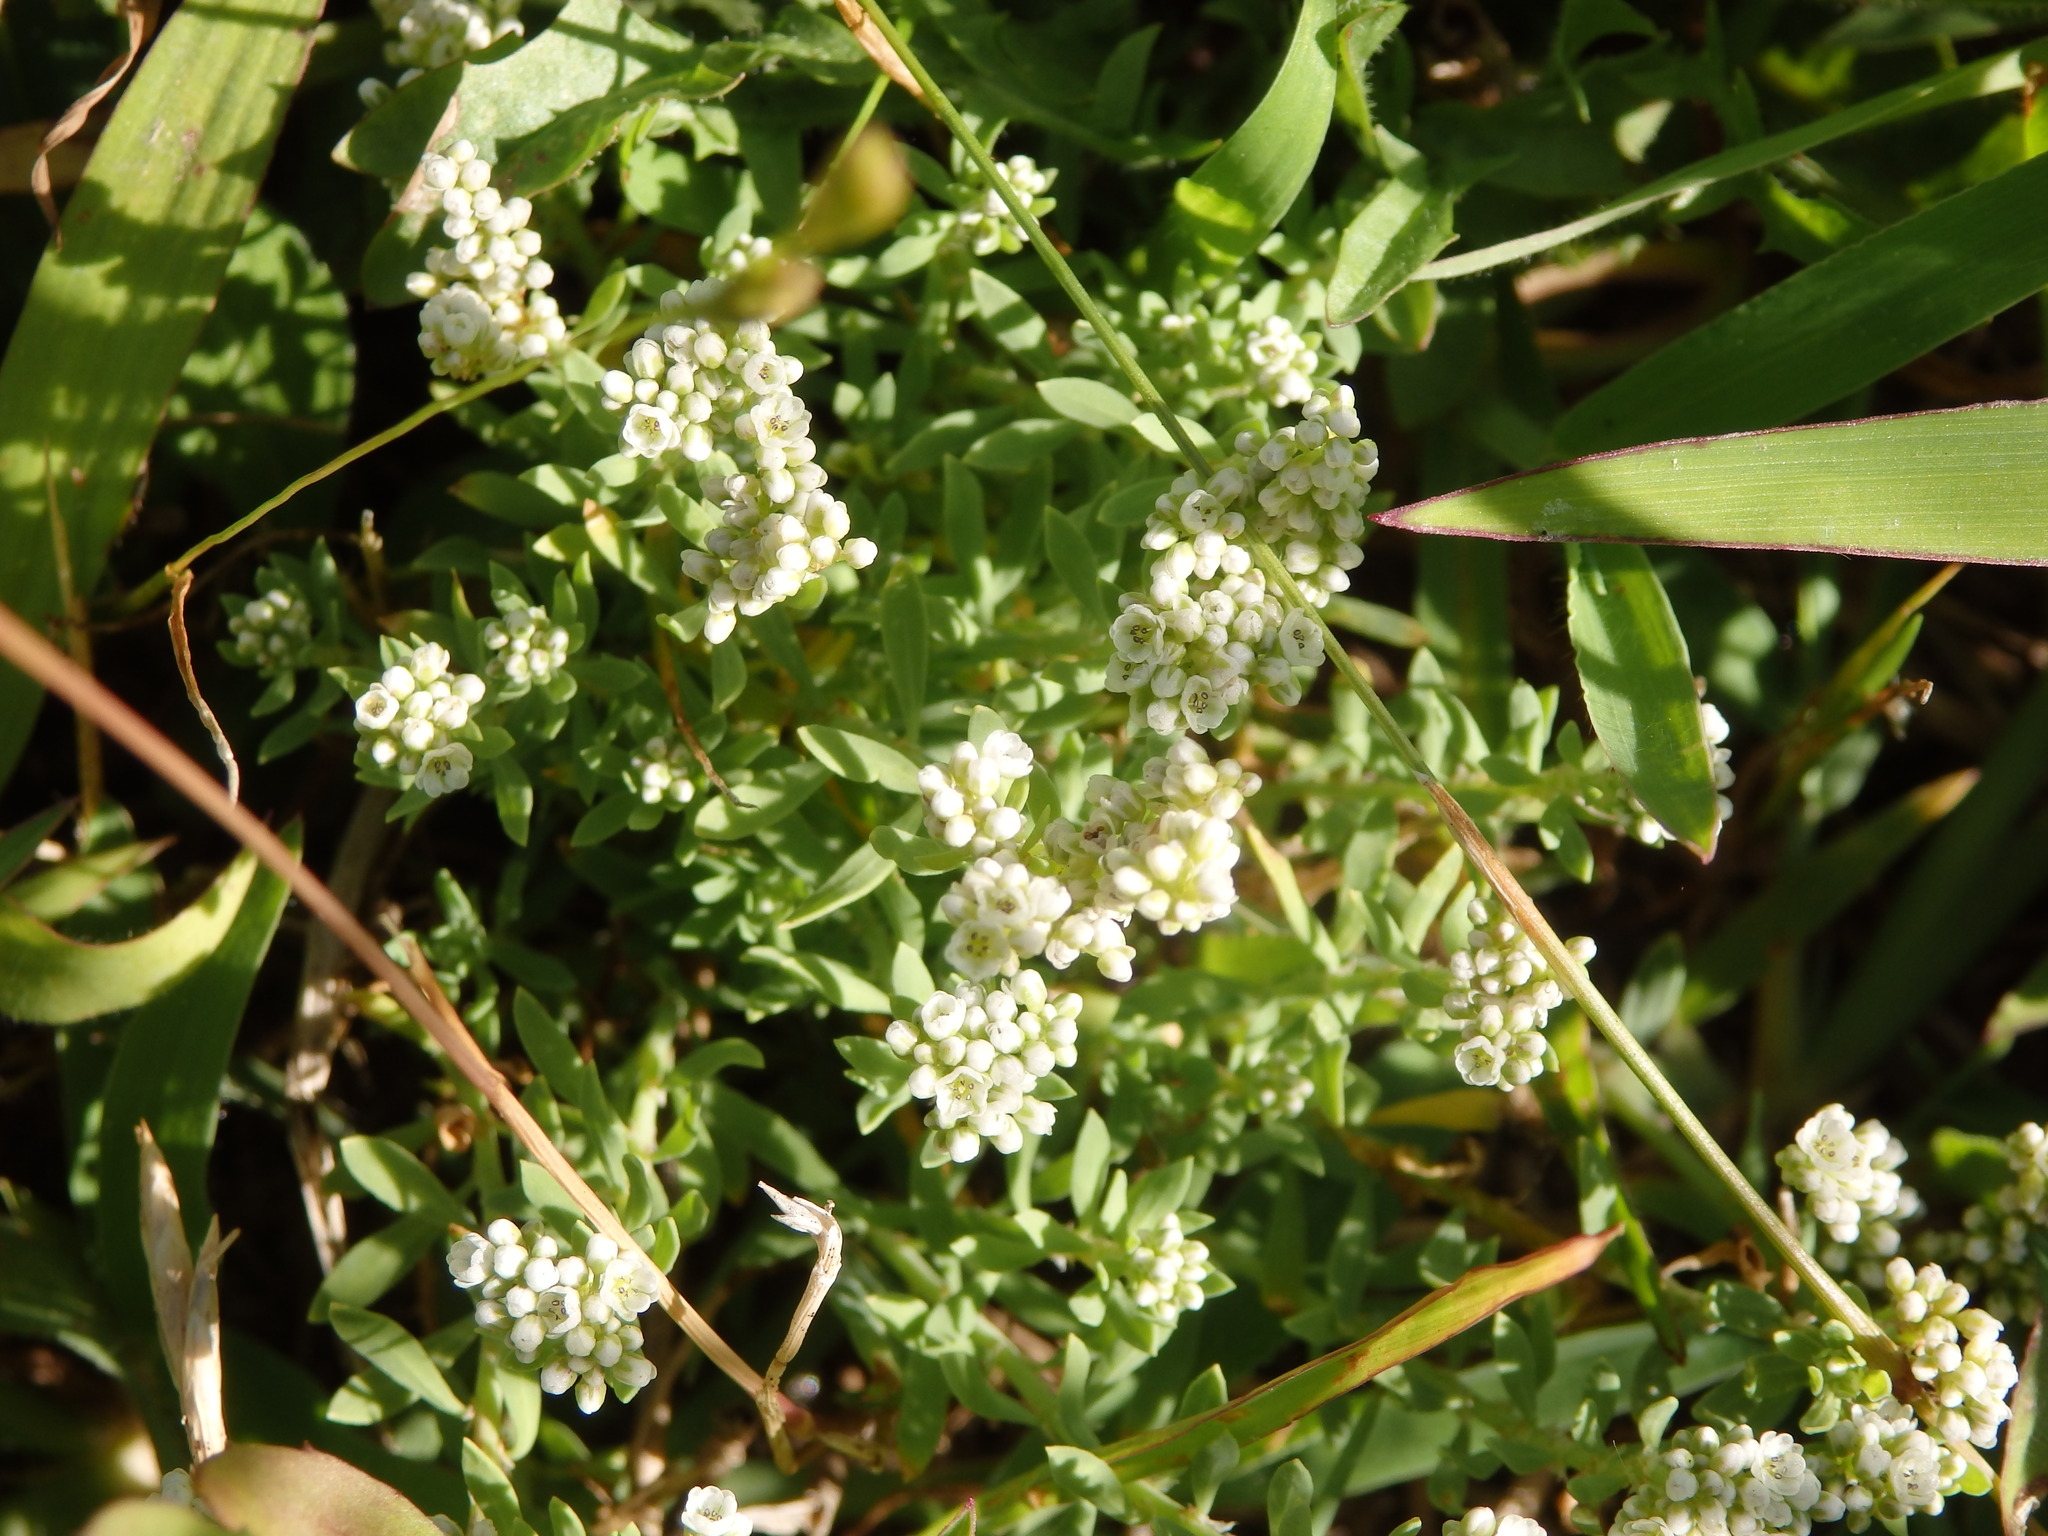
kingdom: Plantae
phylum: Tracheophyta
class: Magnoliopsida
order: Caryophyllales
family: Caryophyllaceae
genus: Corrigiola
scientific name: Corrigiola litoralis
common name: Strapwort
